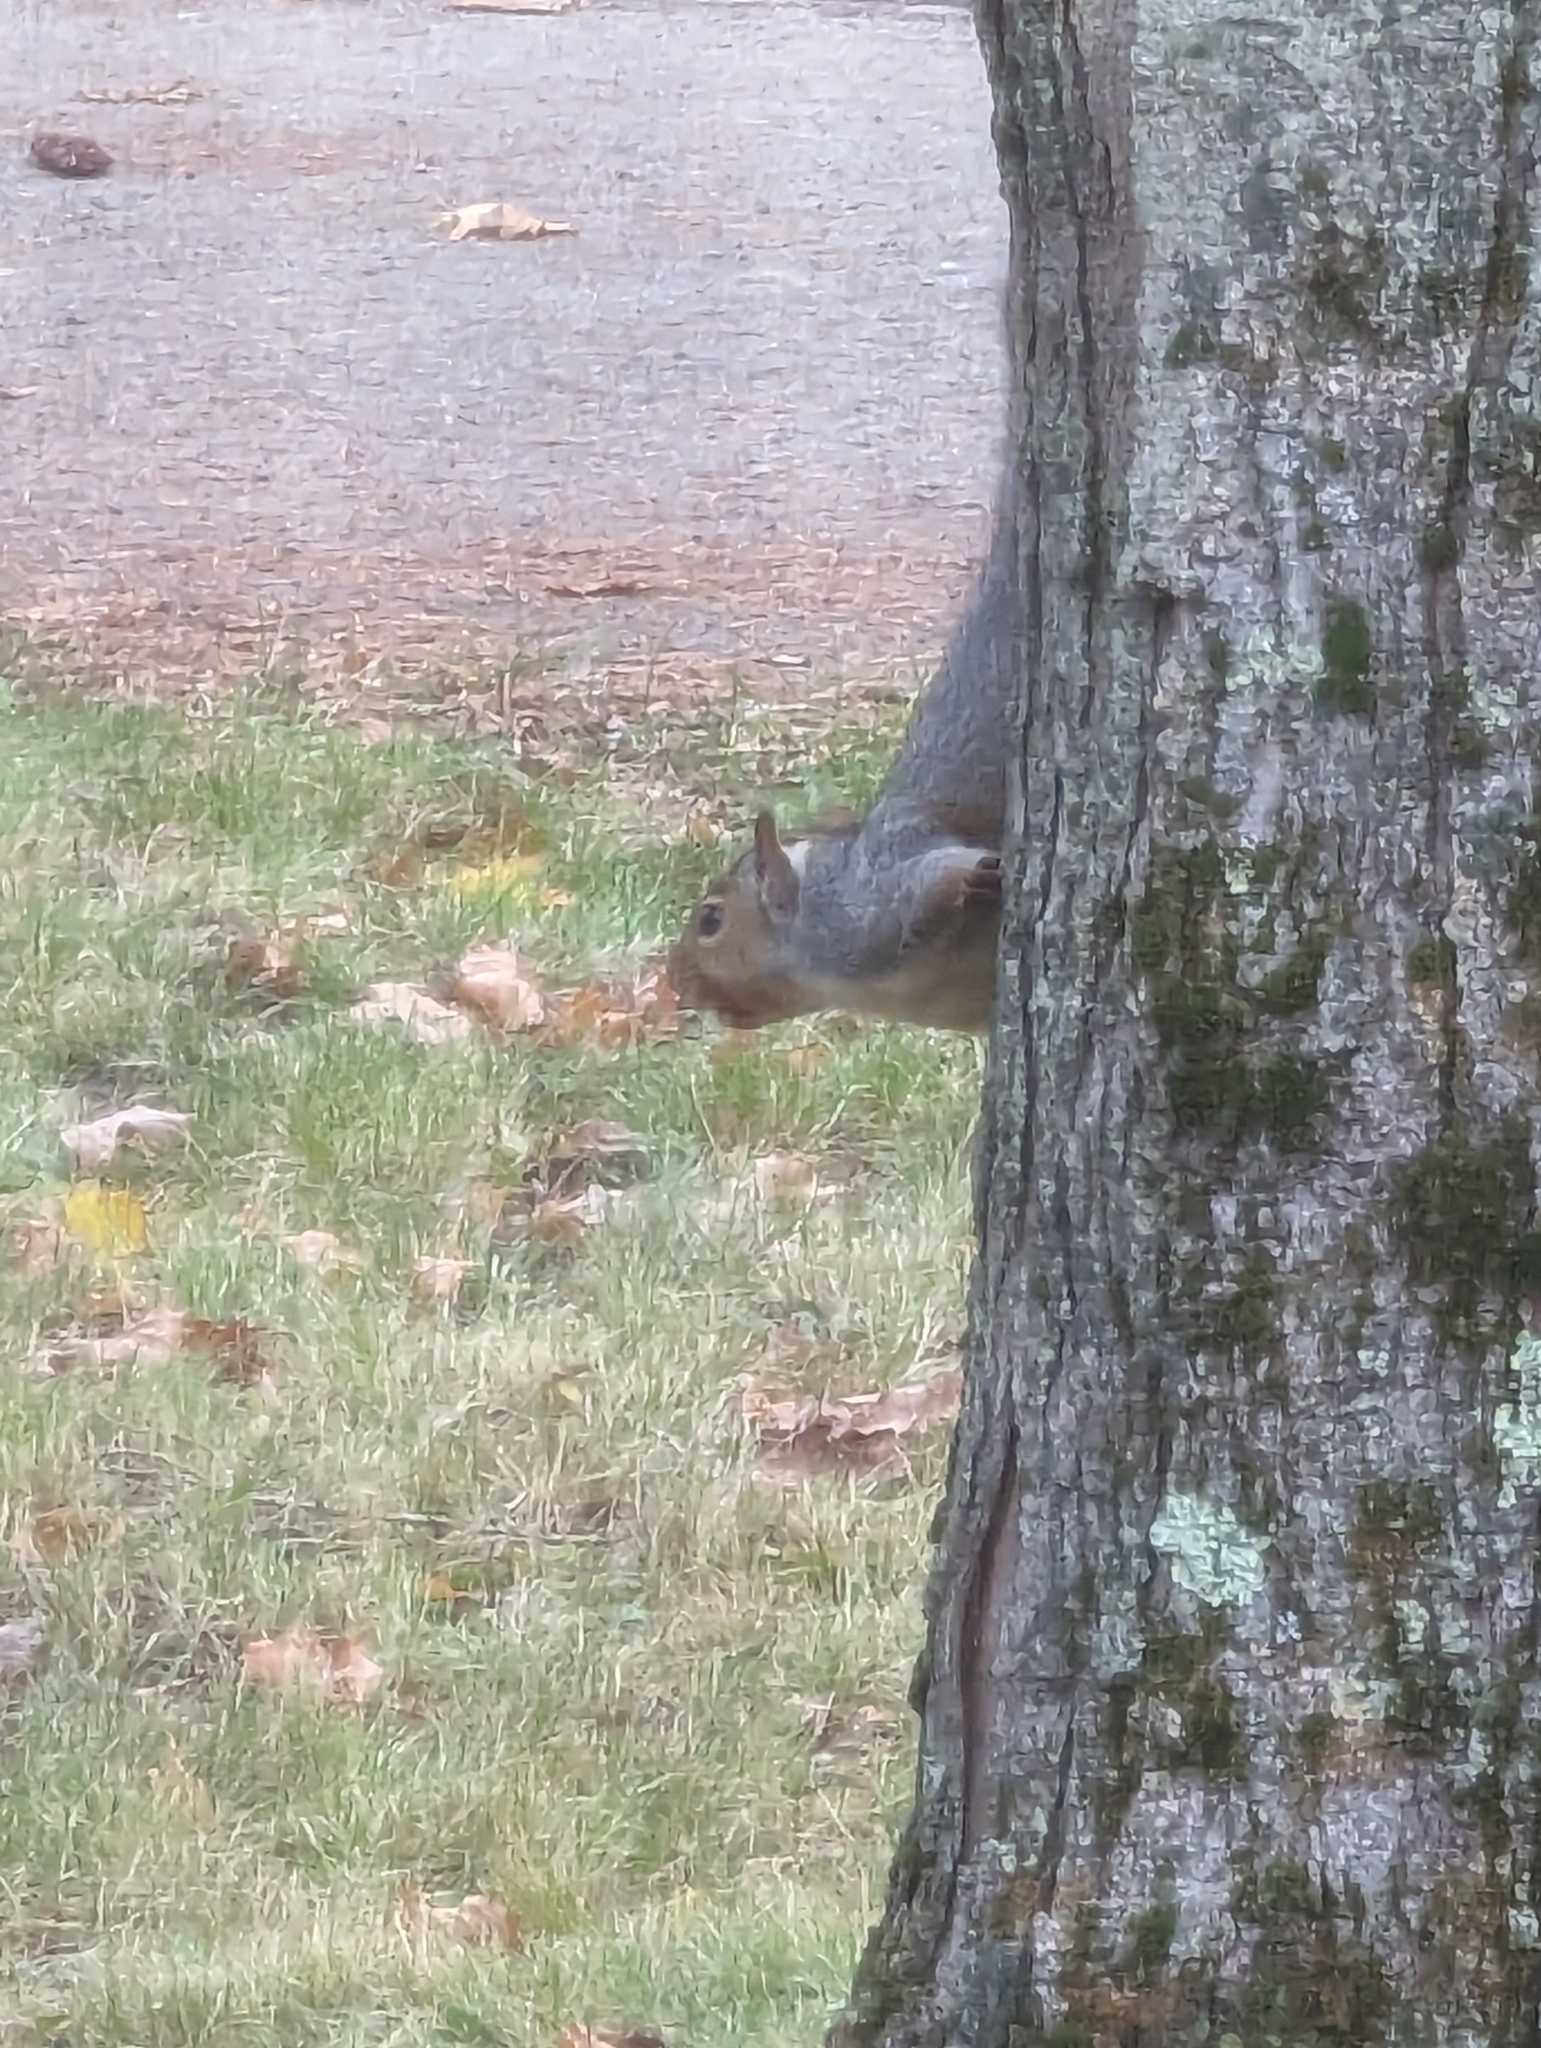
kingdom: Animalia
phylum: Chordata
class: Mammalia
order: Rodentia
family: Sciuridae
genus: Sciurus
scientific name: Sciurus carolinensis
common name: Eastern gray squirrel
